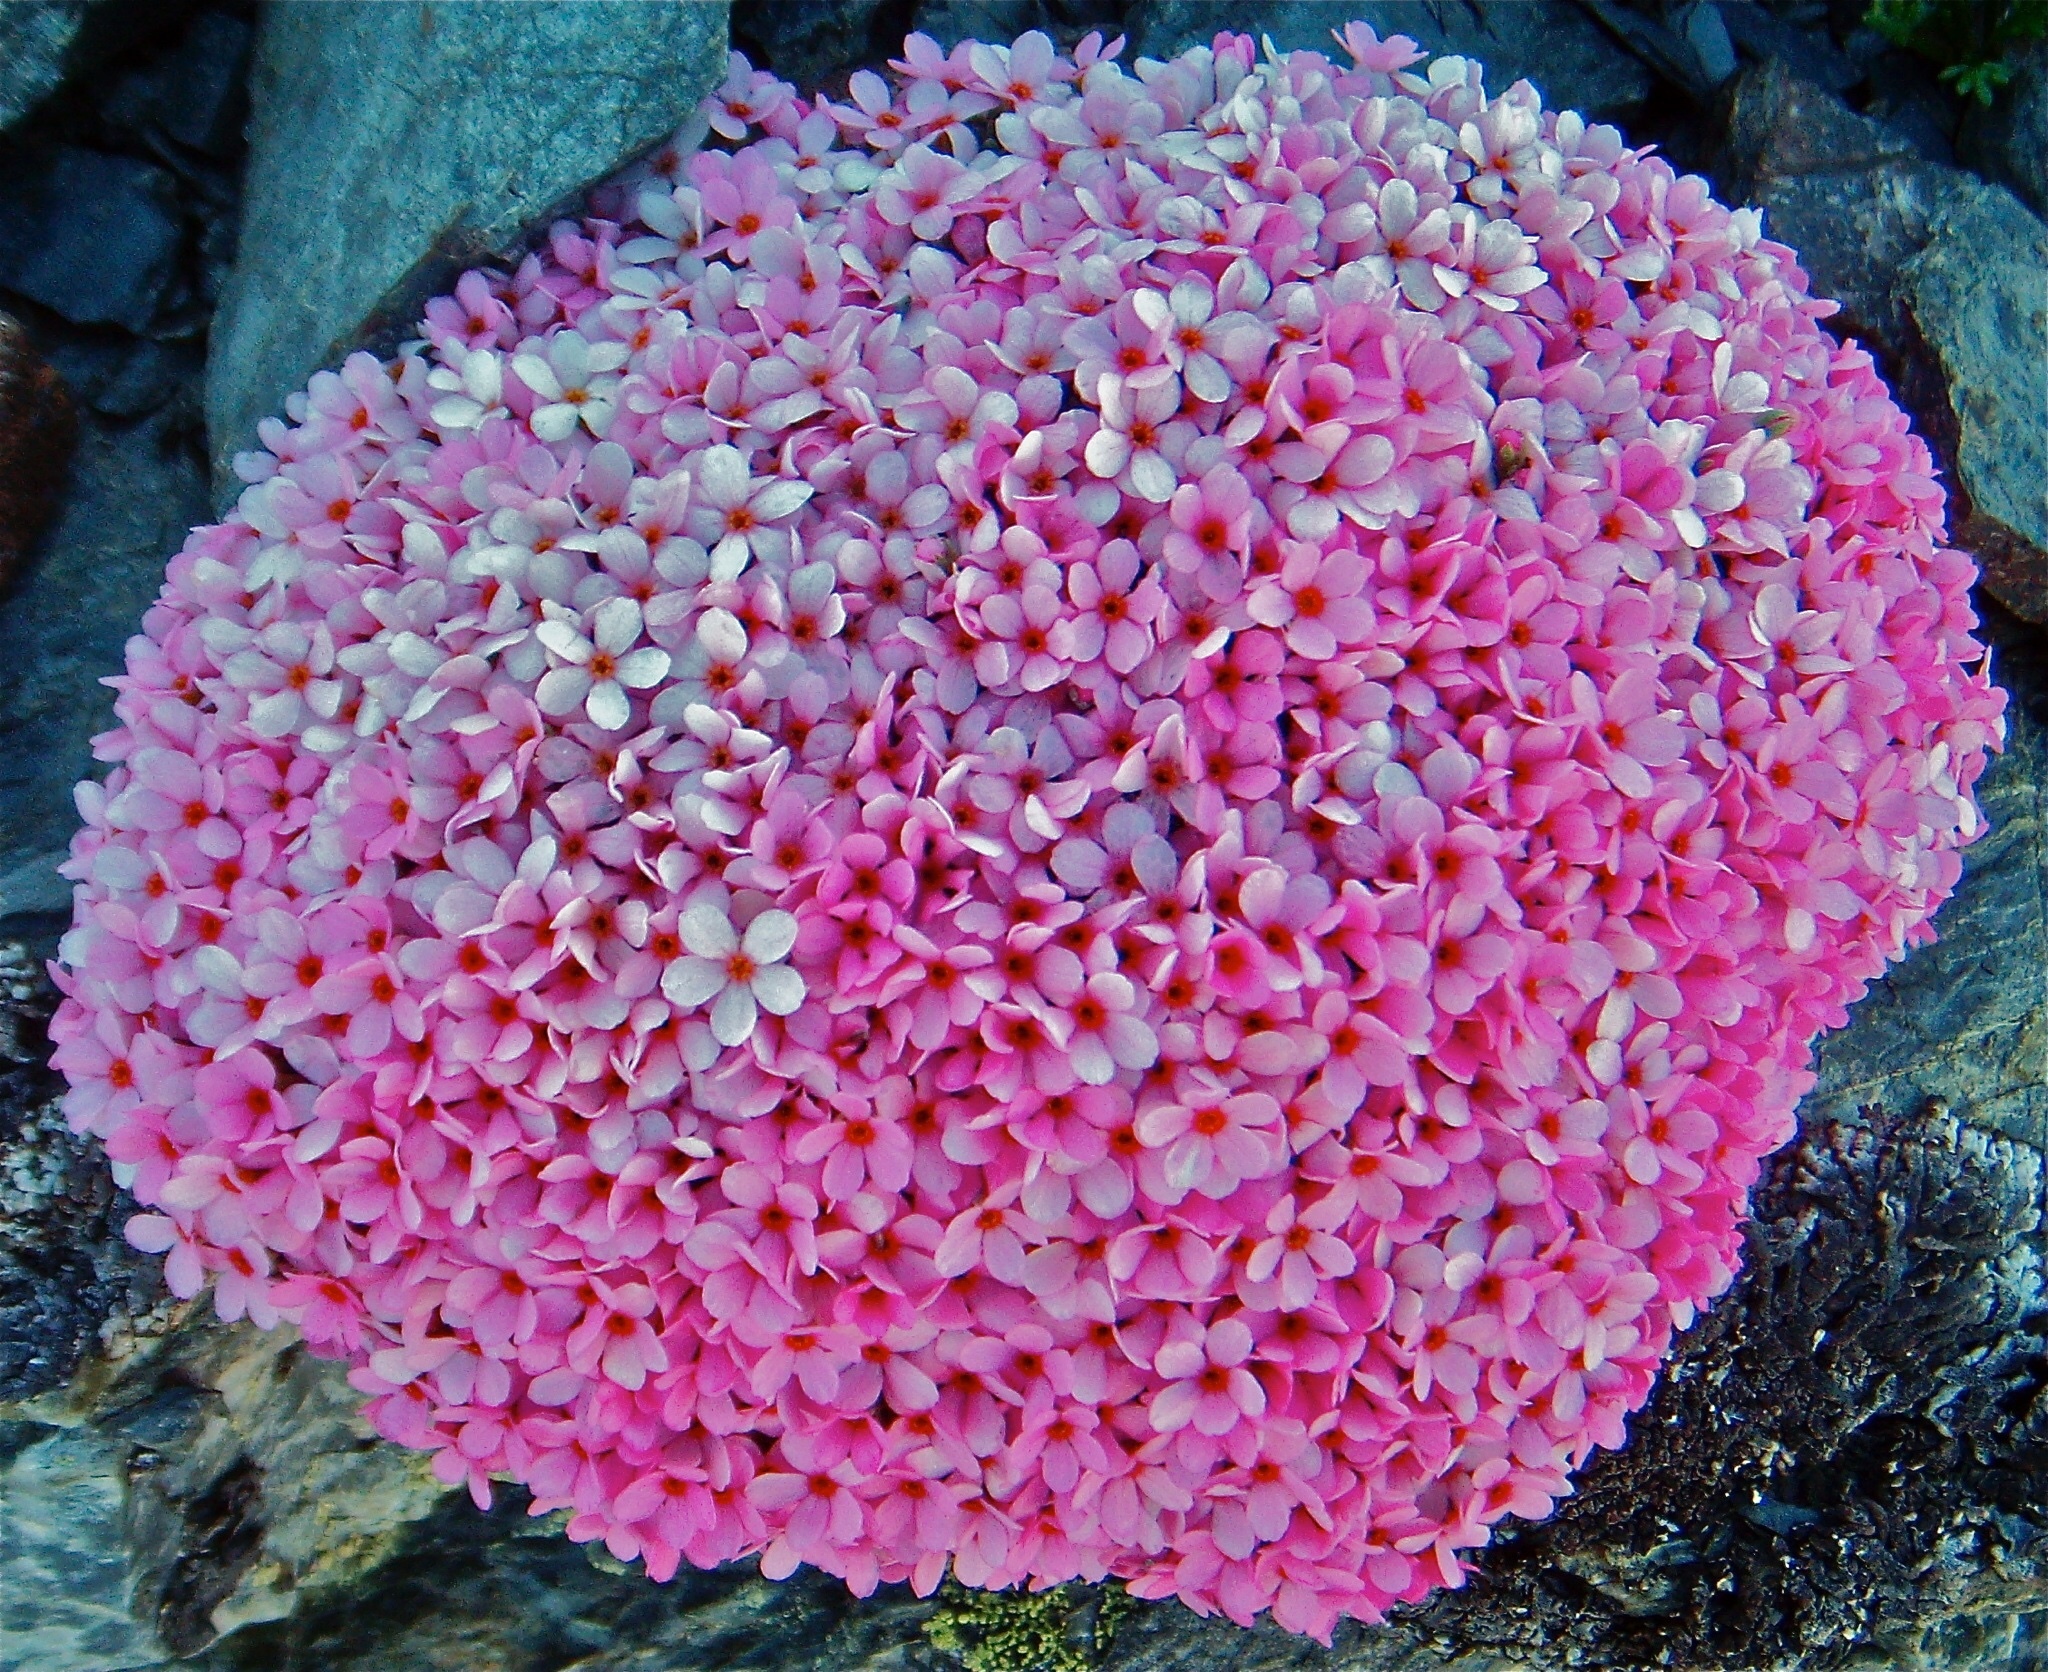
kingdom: Plantae
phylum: Tracheophyta
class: Magnoliopsida
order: Ericales
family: Primulaceae
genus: Androsace
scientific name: Androsace alpina
